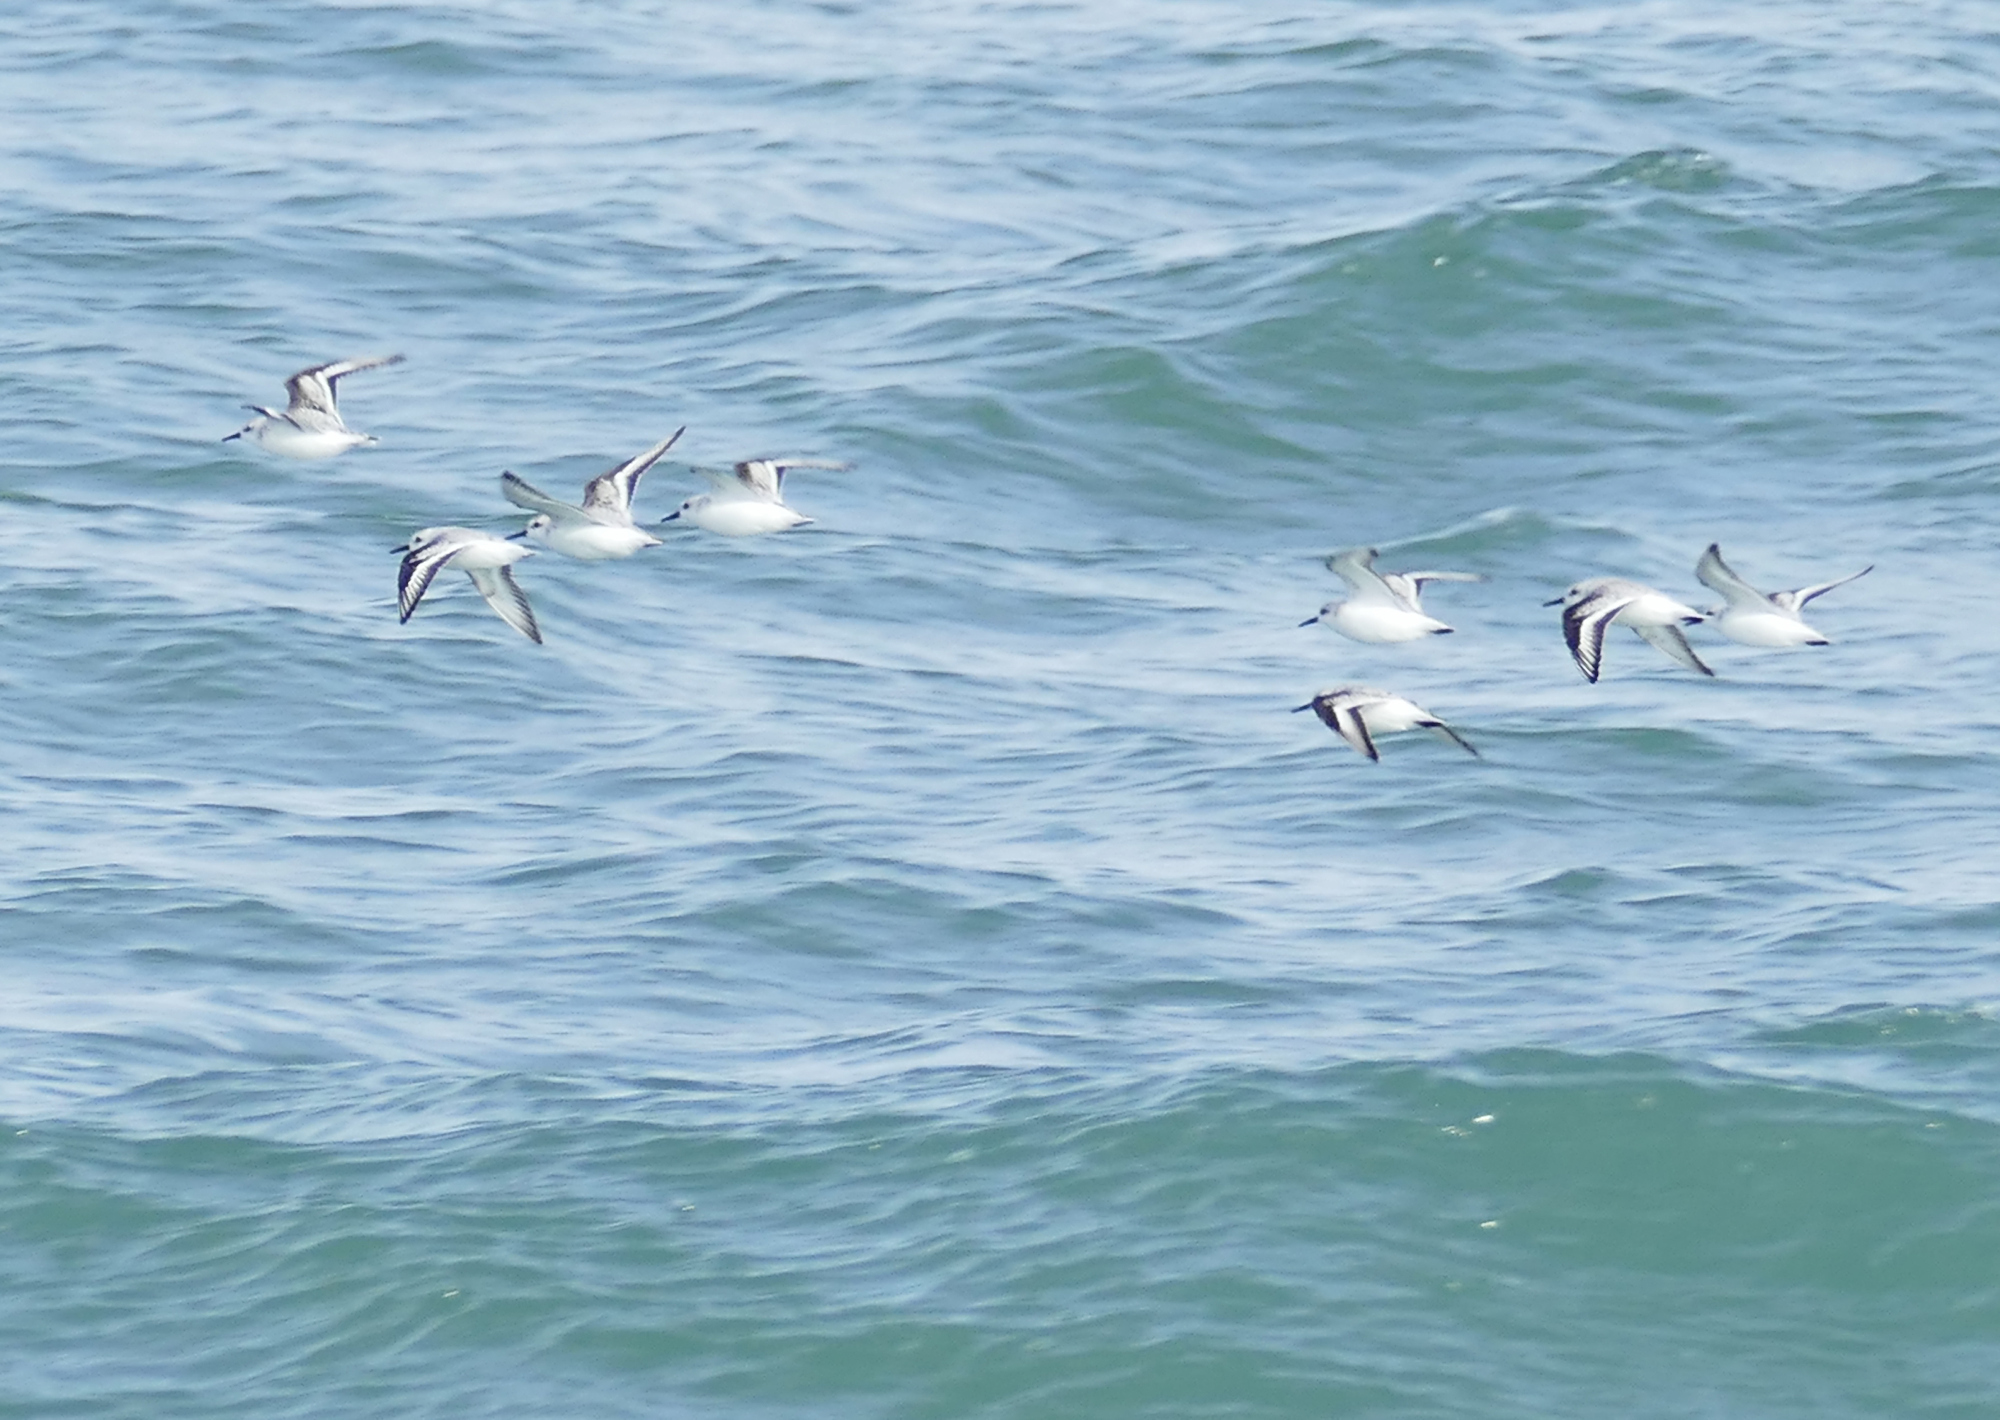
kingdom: Animalia
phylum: Chordata
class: Aves
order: Charadriiformes
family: Scolopacidae
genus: Calidris
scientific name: Calidris alba
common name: Sanderling
